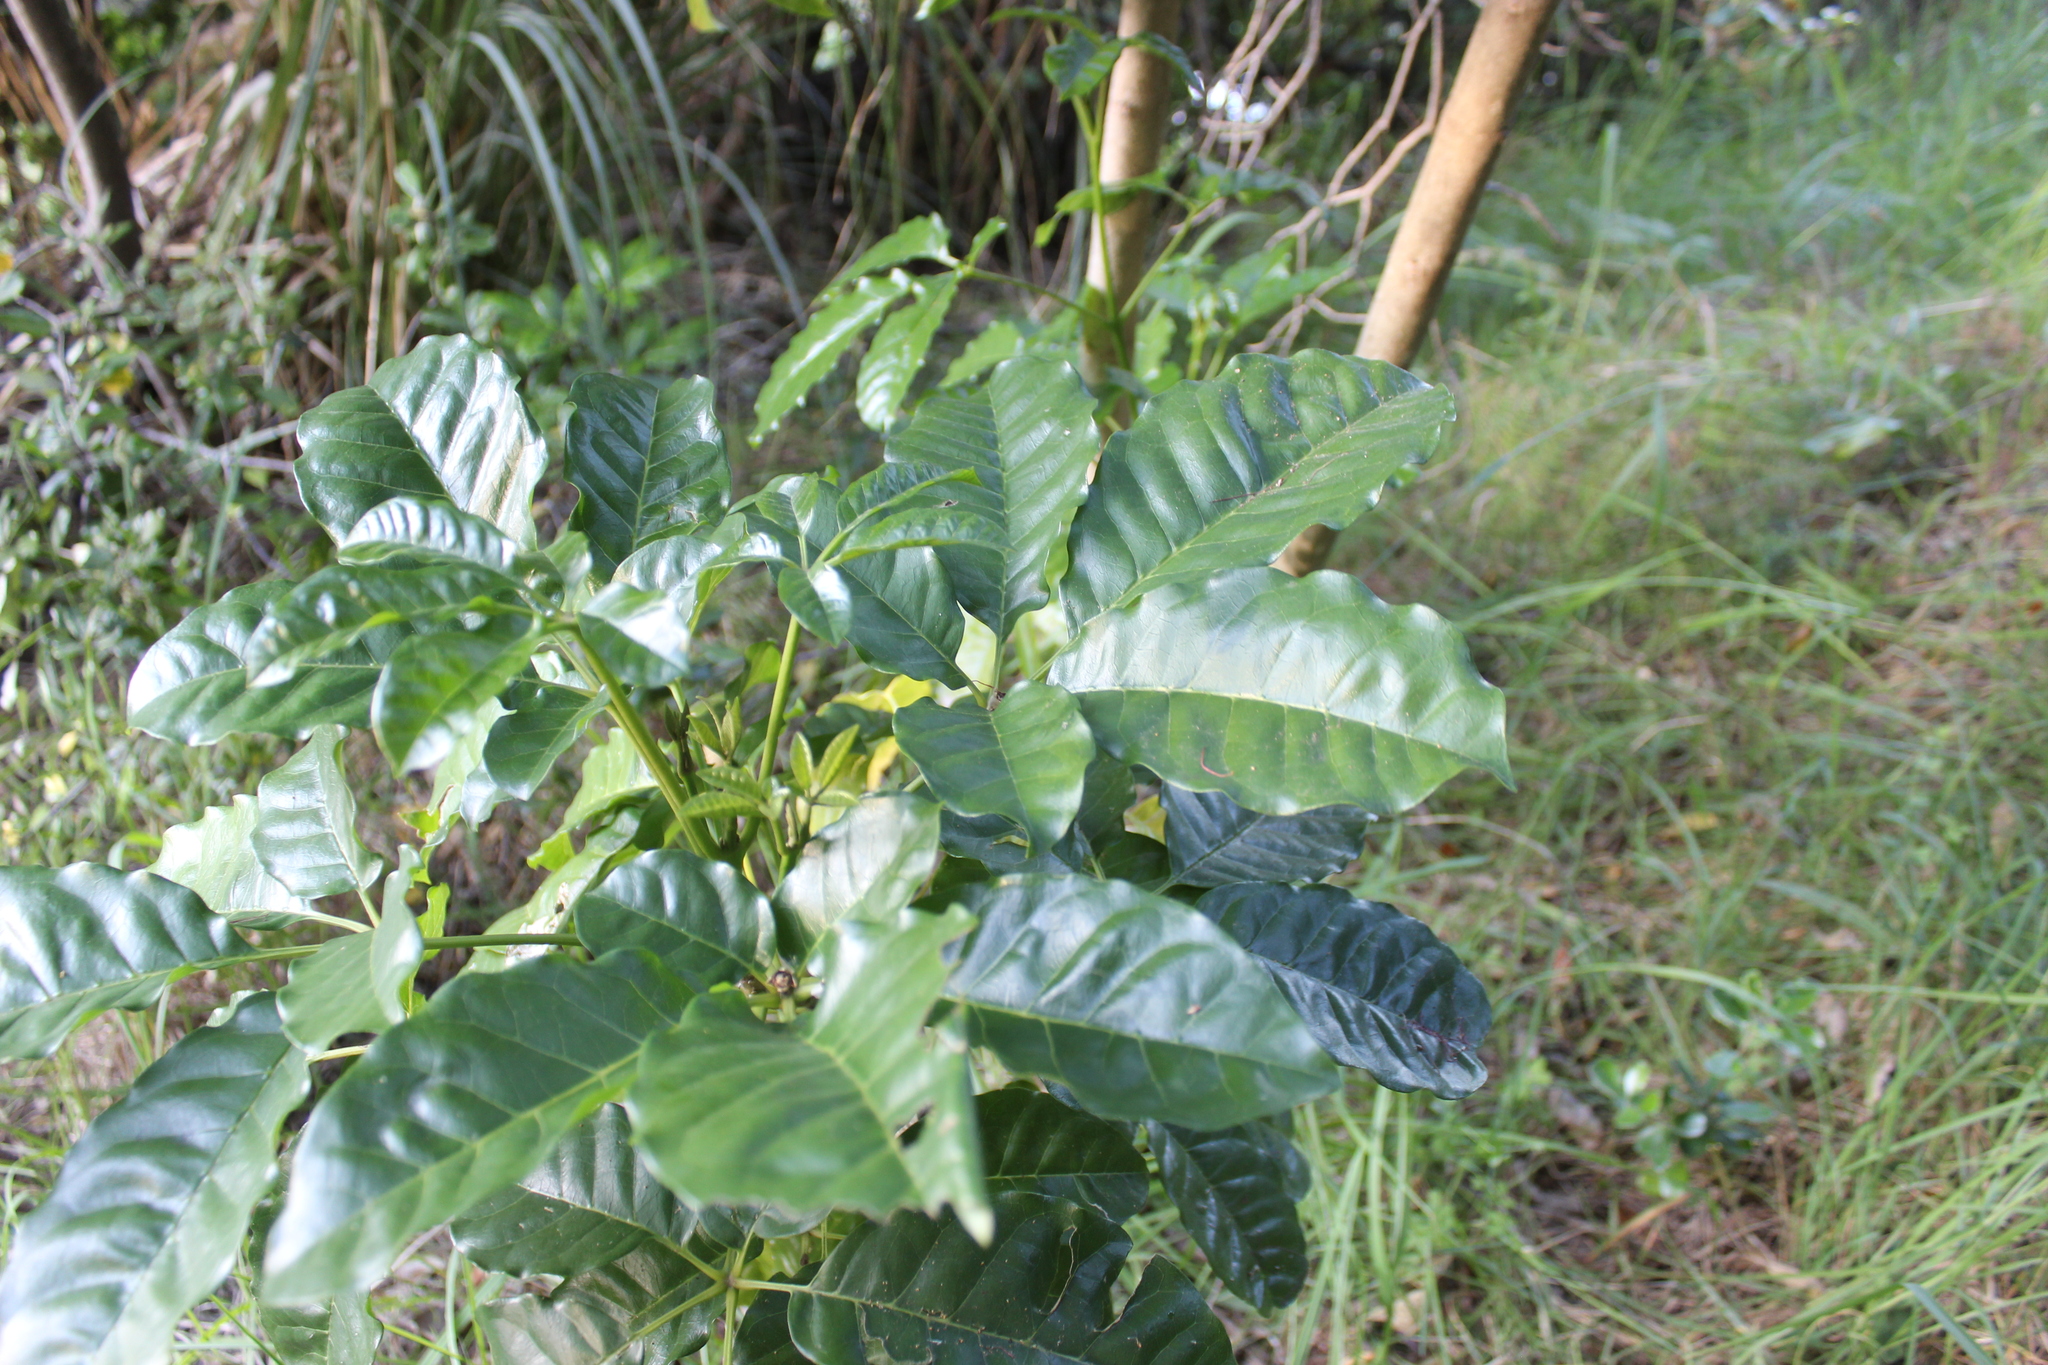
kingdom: Plantae
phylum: Tracheophyta
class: Magnoliopsida
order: Lamiales
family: Lamiaceae
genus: Vitex
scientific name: Vitex lucens
